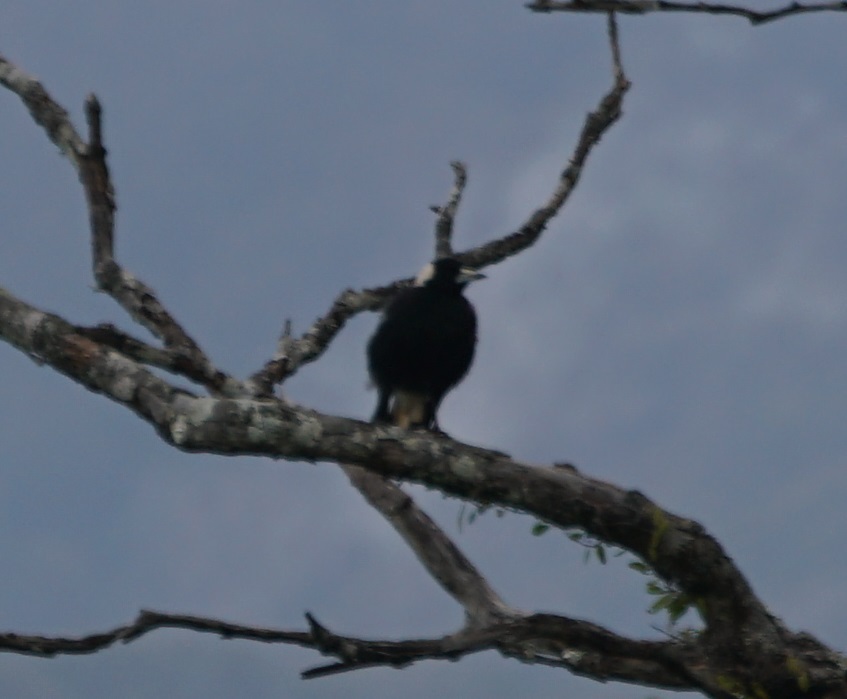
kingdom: Animalia
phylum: Chordata
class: Aves
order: Passeriformes
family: Cracticidae
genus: Gymnorhina
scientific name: Gymnorhina tibicen
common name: Australian magpie
